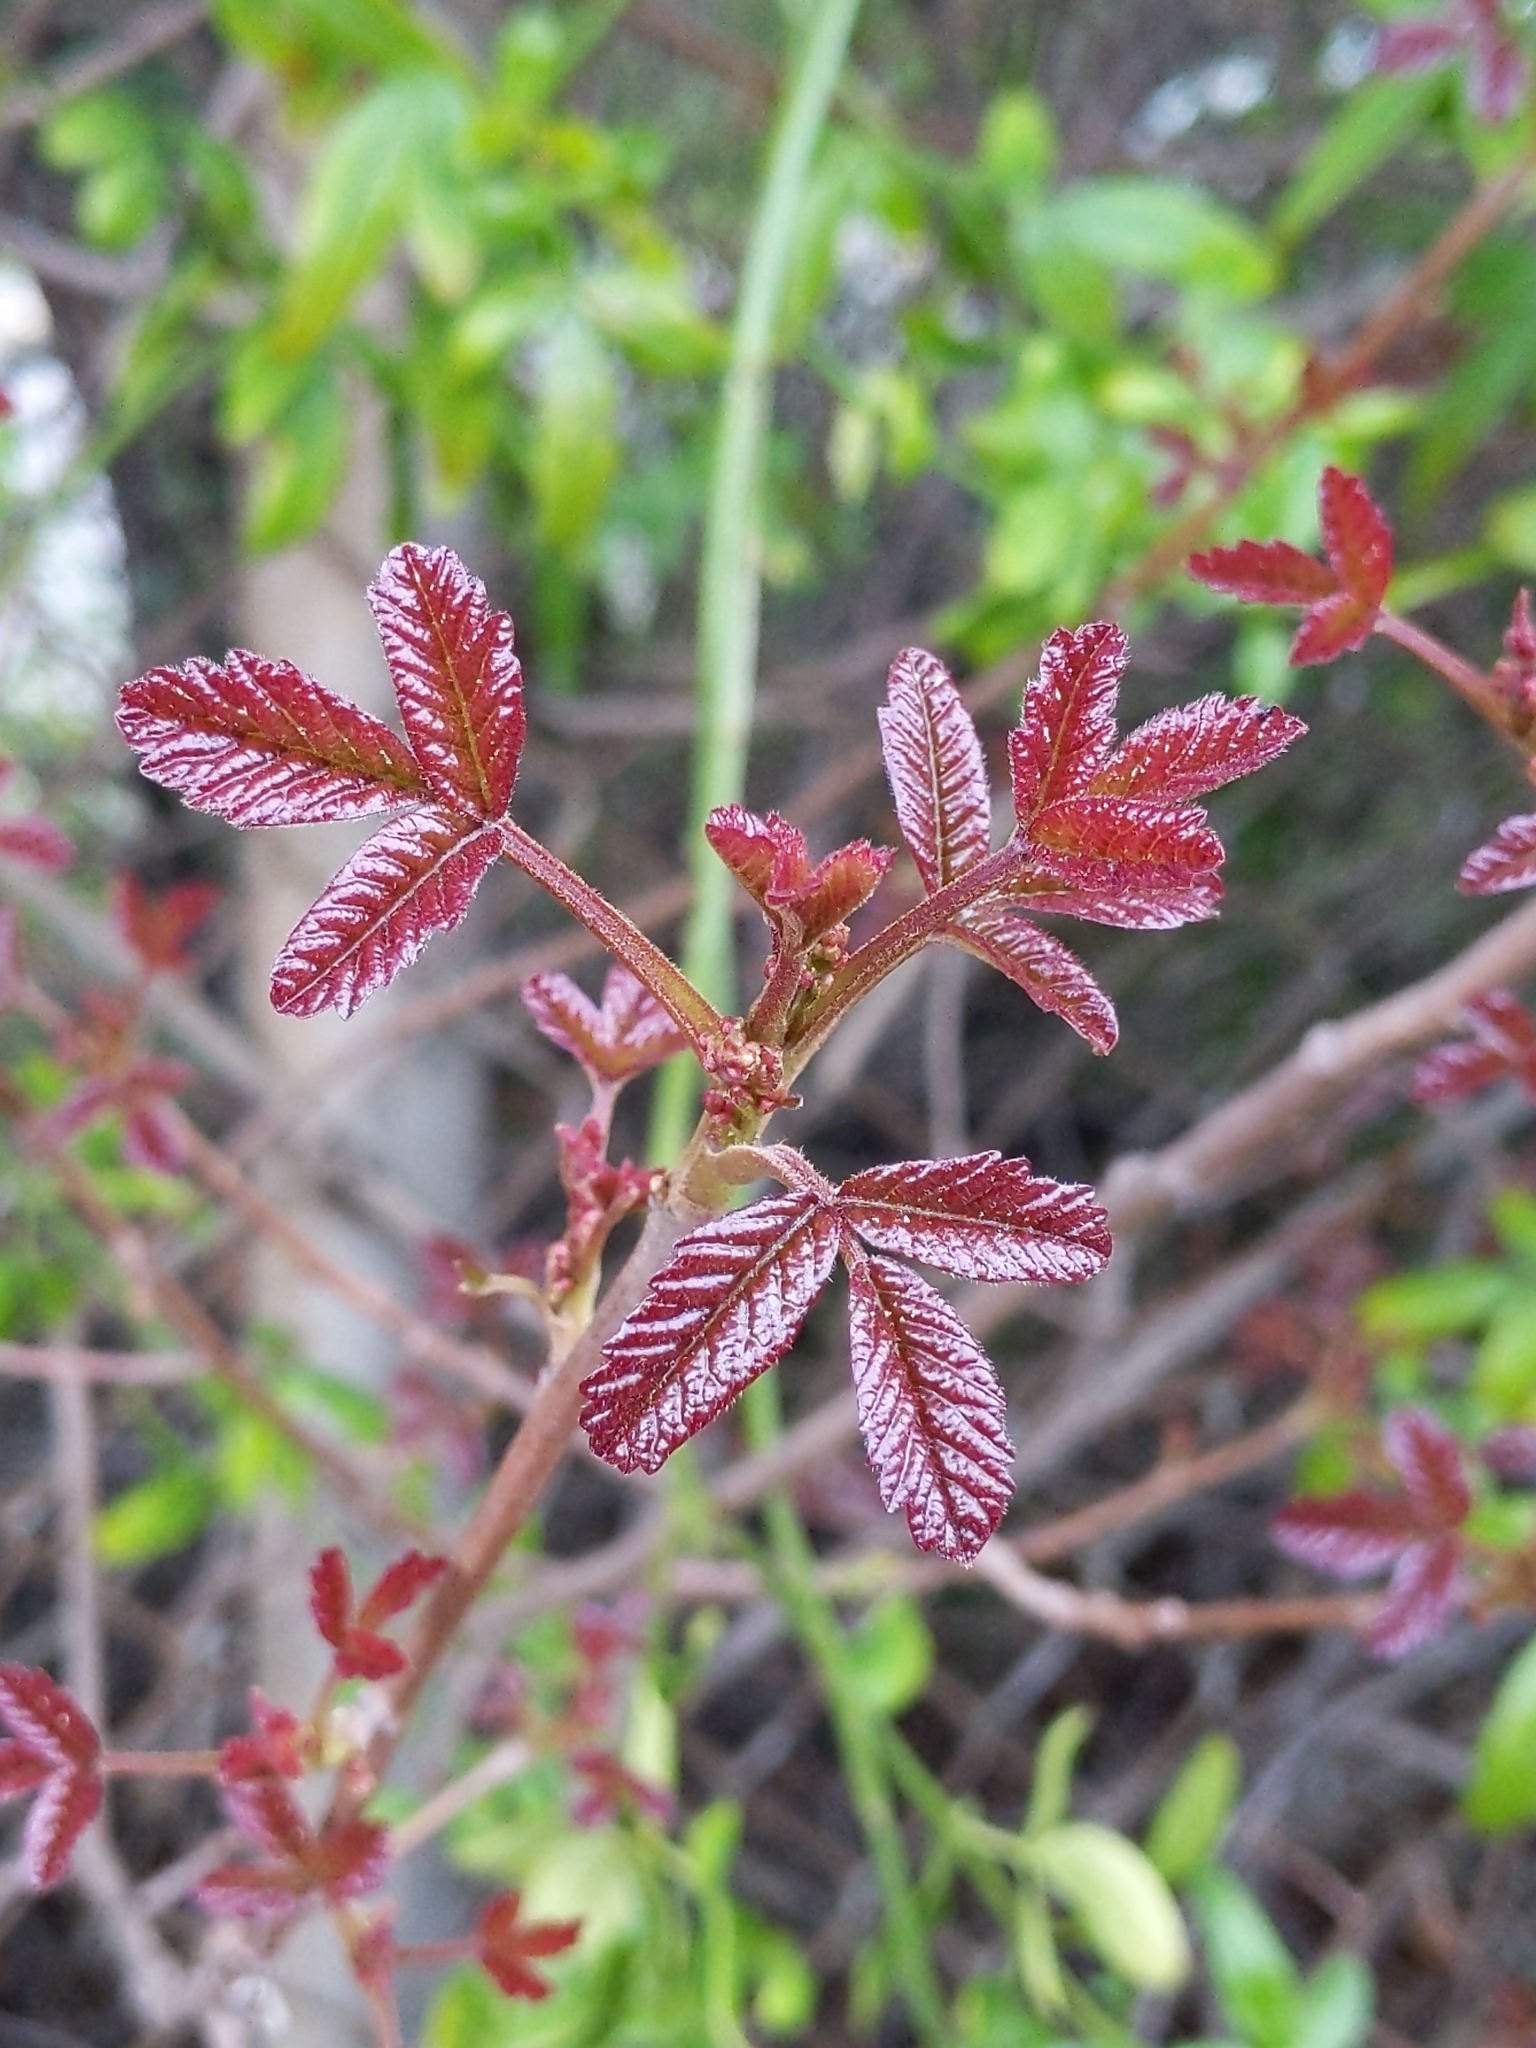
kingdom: Plantae
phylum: Tracheophyta
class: Magnoliopsida
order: Sapindales
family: Anacardiaceae
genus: Toxicodendron
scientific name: Toxicodendron diversilobum
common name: Pacific poison-oak
